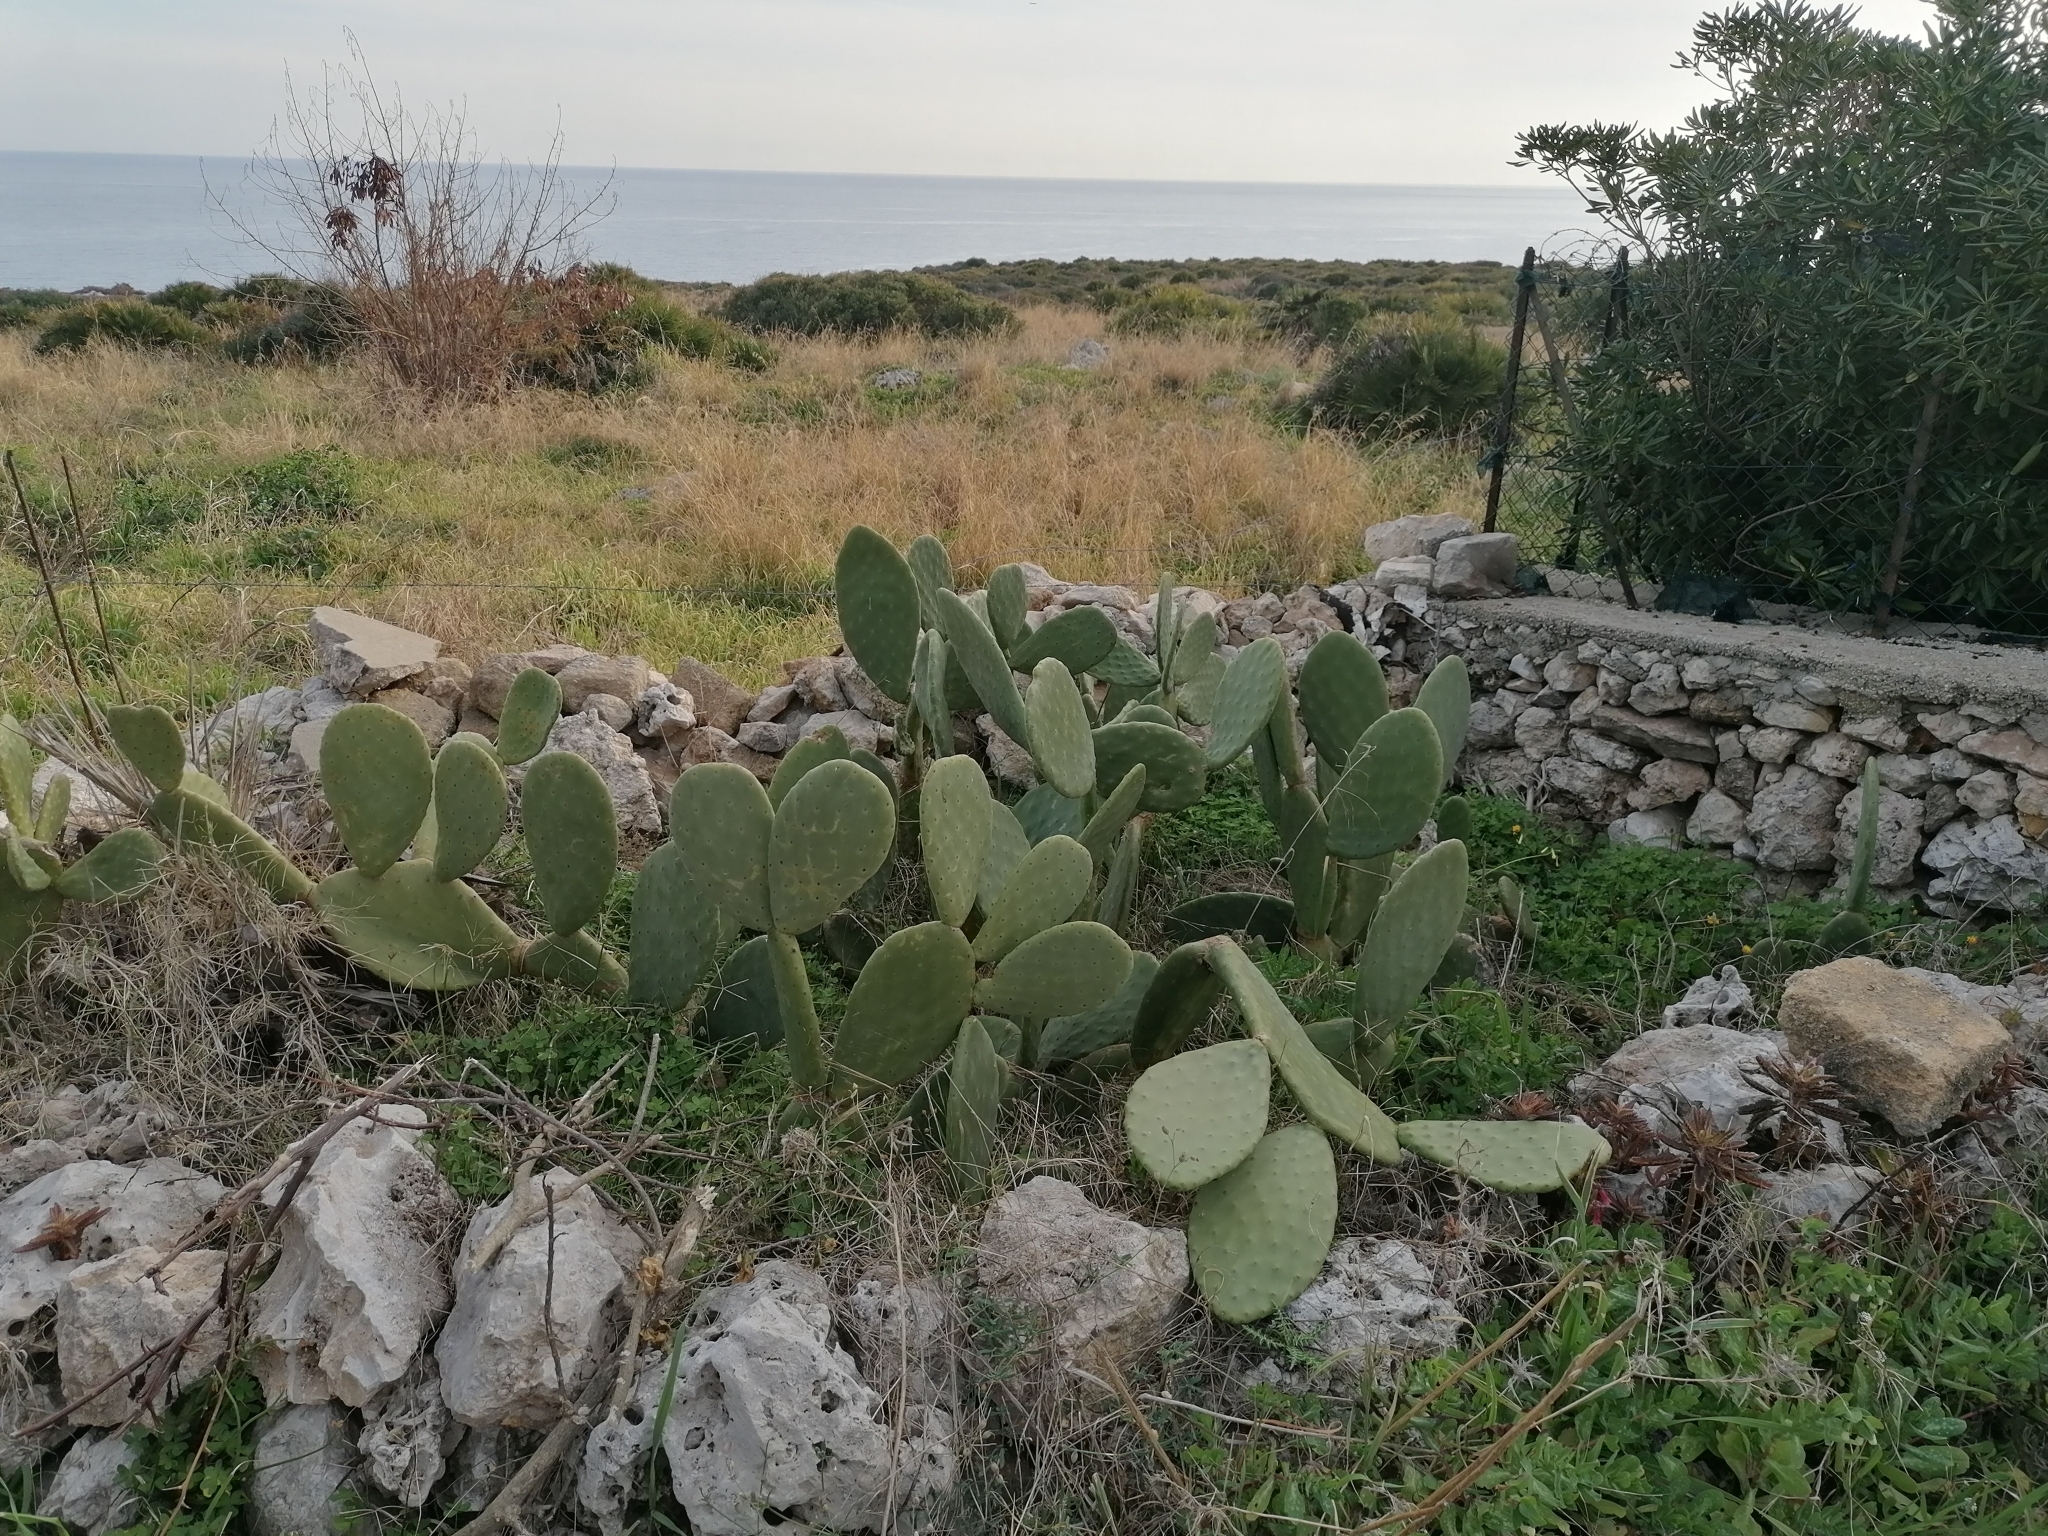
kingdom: Plantae
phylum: Tracheophyta
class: Magnoliopsida
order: Caryophyllales
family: Cactaceae
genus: Opuntia
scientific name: Opuntia ficus-indica
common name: Barbary fig
